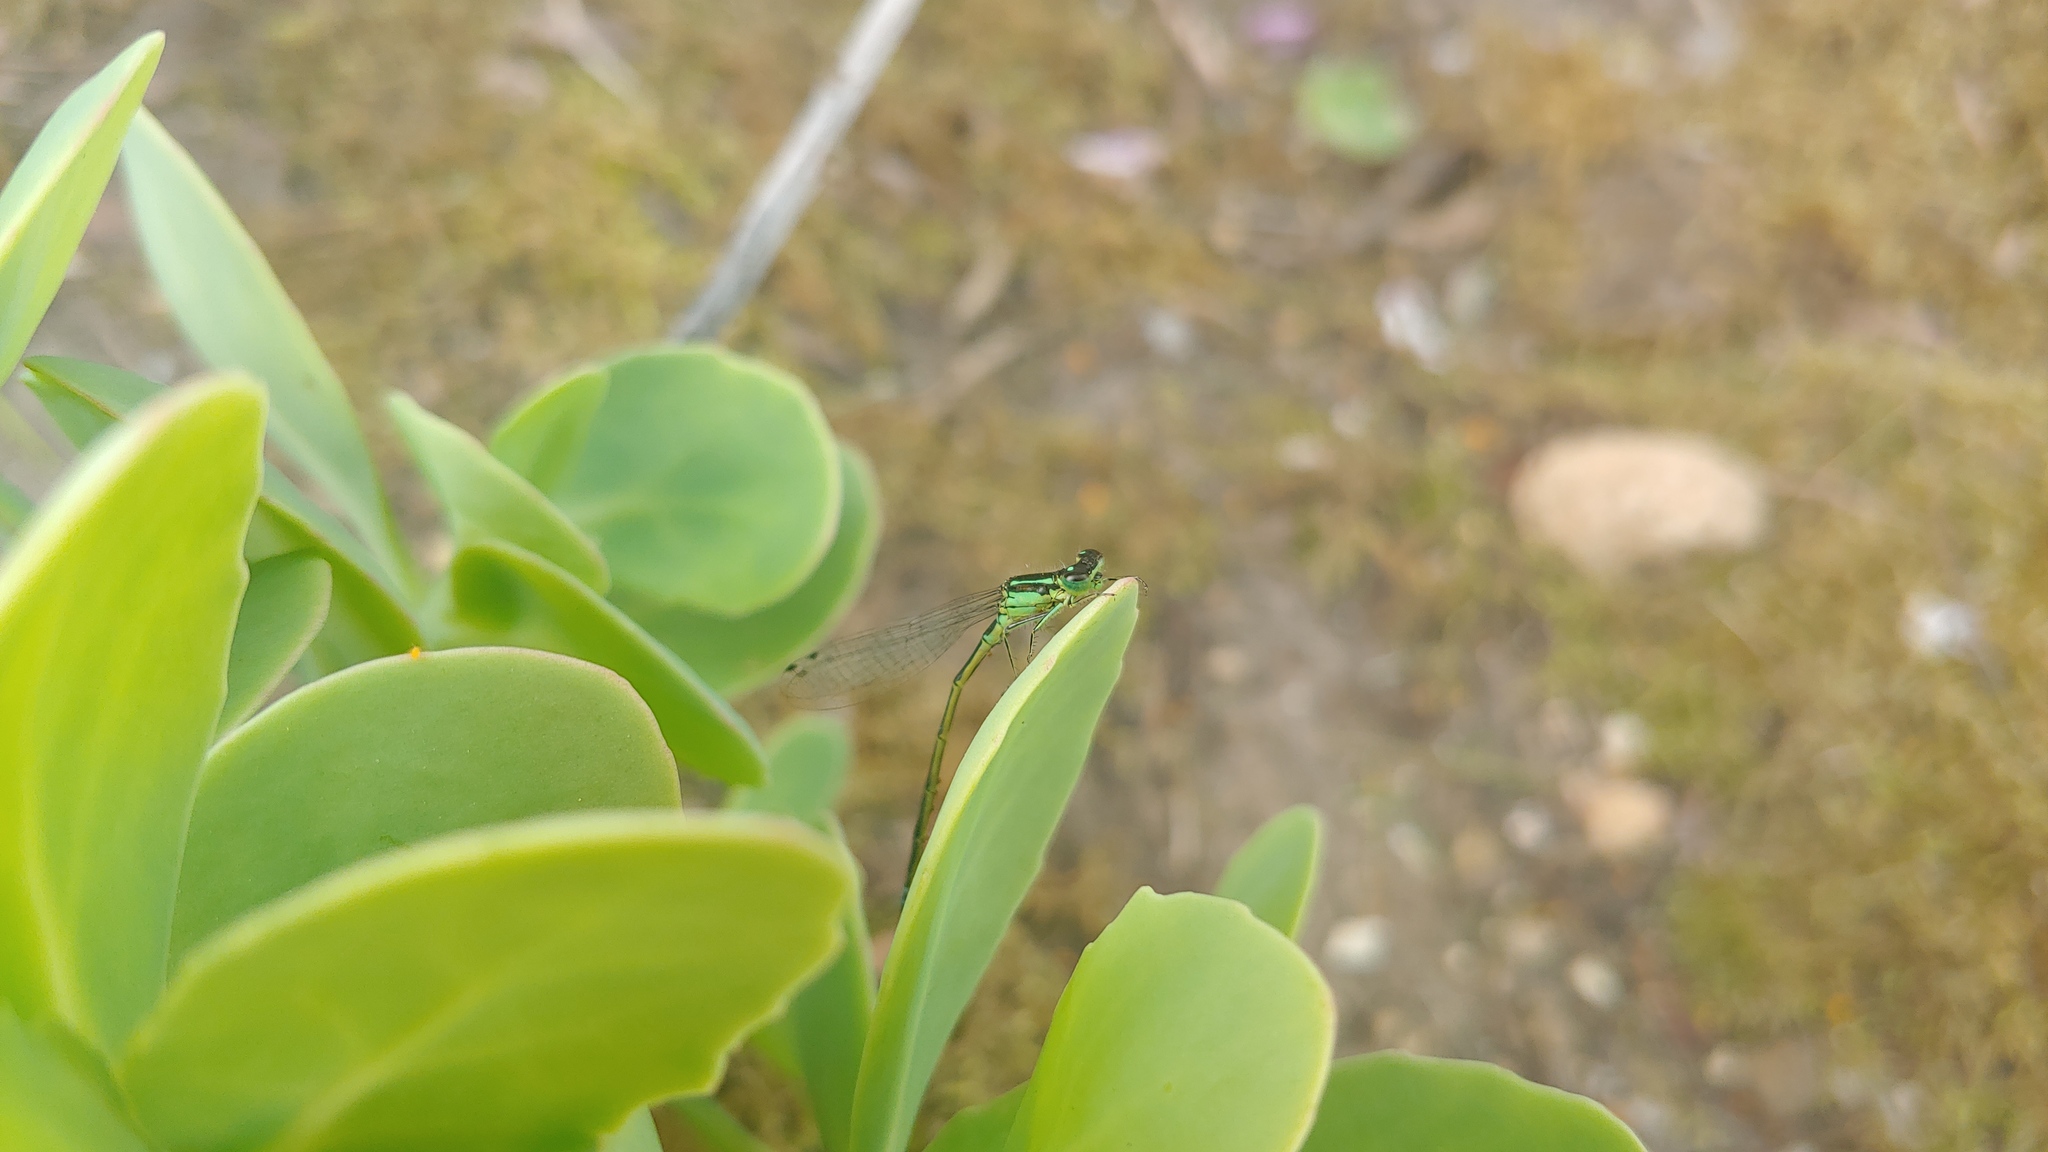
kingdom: Animalia
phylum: Arthropoda
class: Insecta
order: Odonata
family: Coenagrionidae
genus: Ischnura
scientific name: Ischnura verticalis
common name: Eastern forktail
